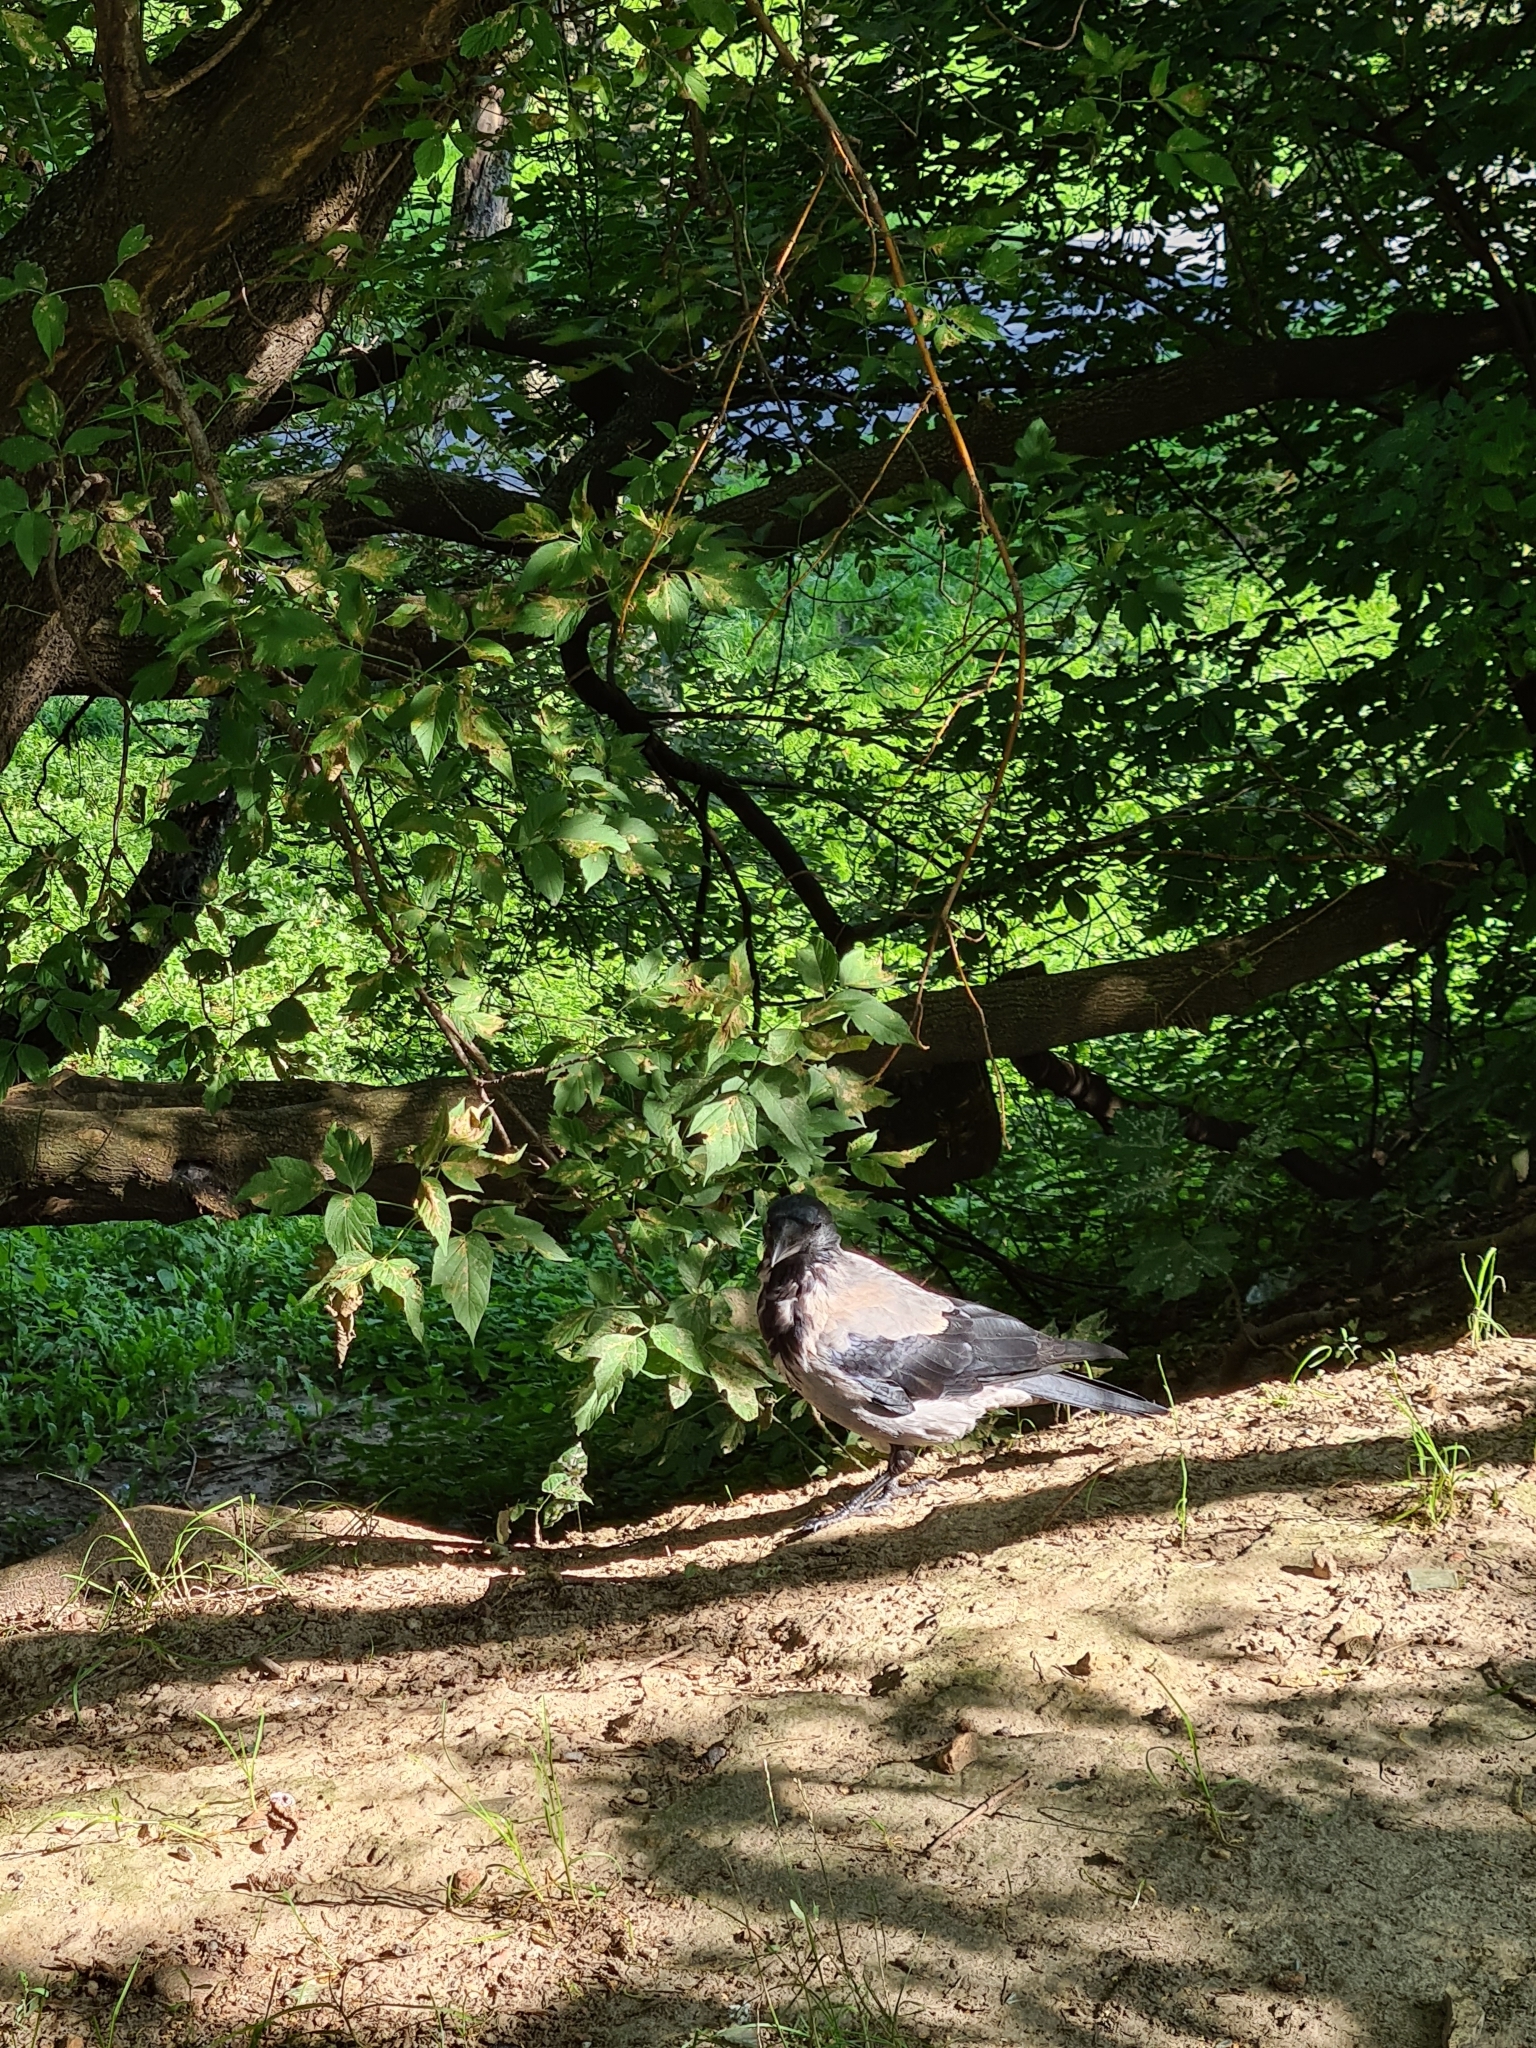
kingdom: Animalia
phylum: Chordata
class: Aves
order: Passeriformes
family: Corvidae
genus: Corvus
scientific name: Corvus cornix
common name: Hooded crow
